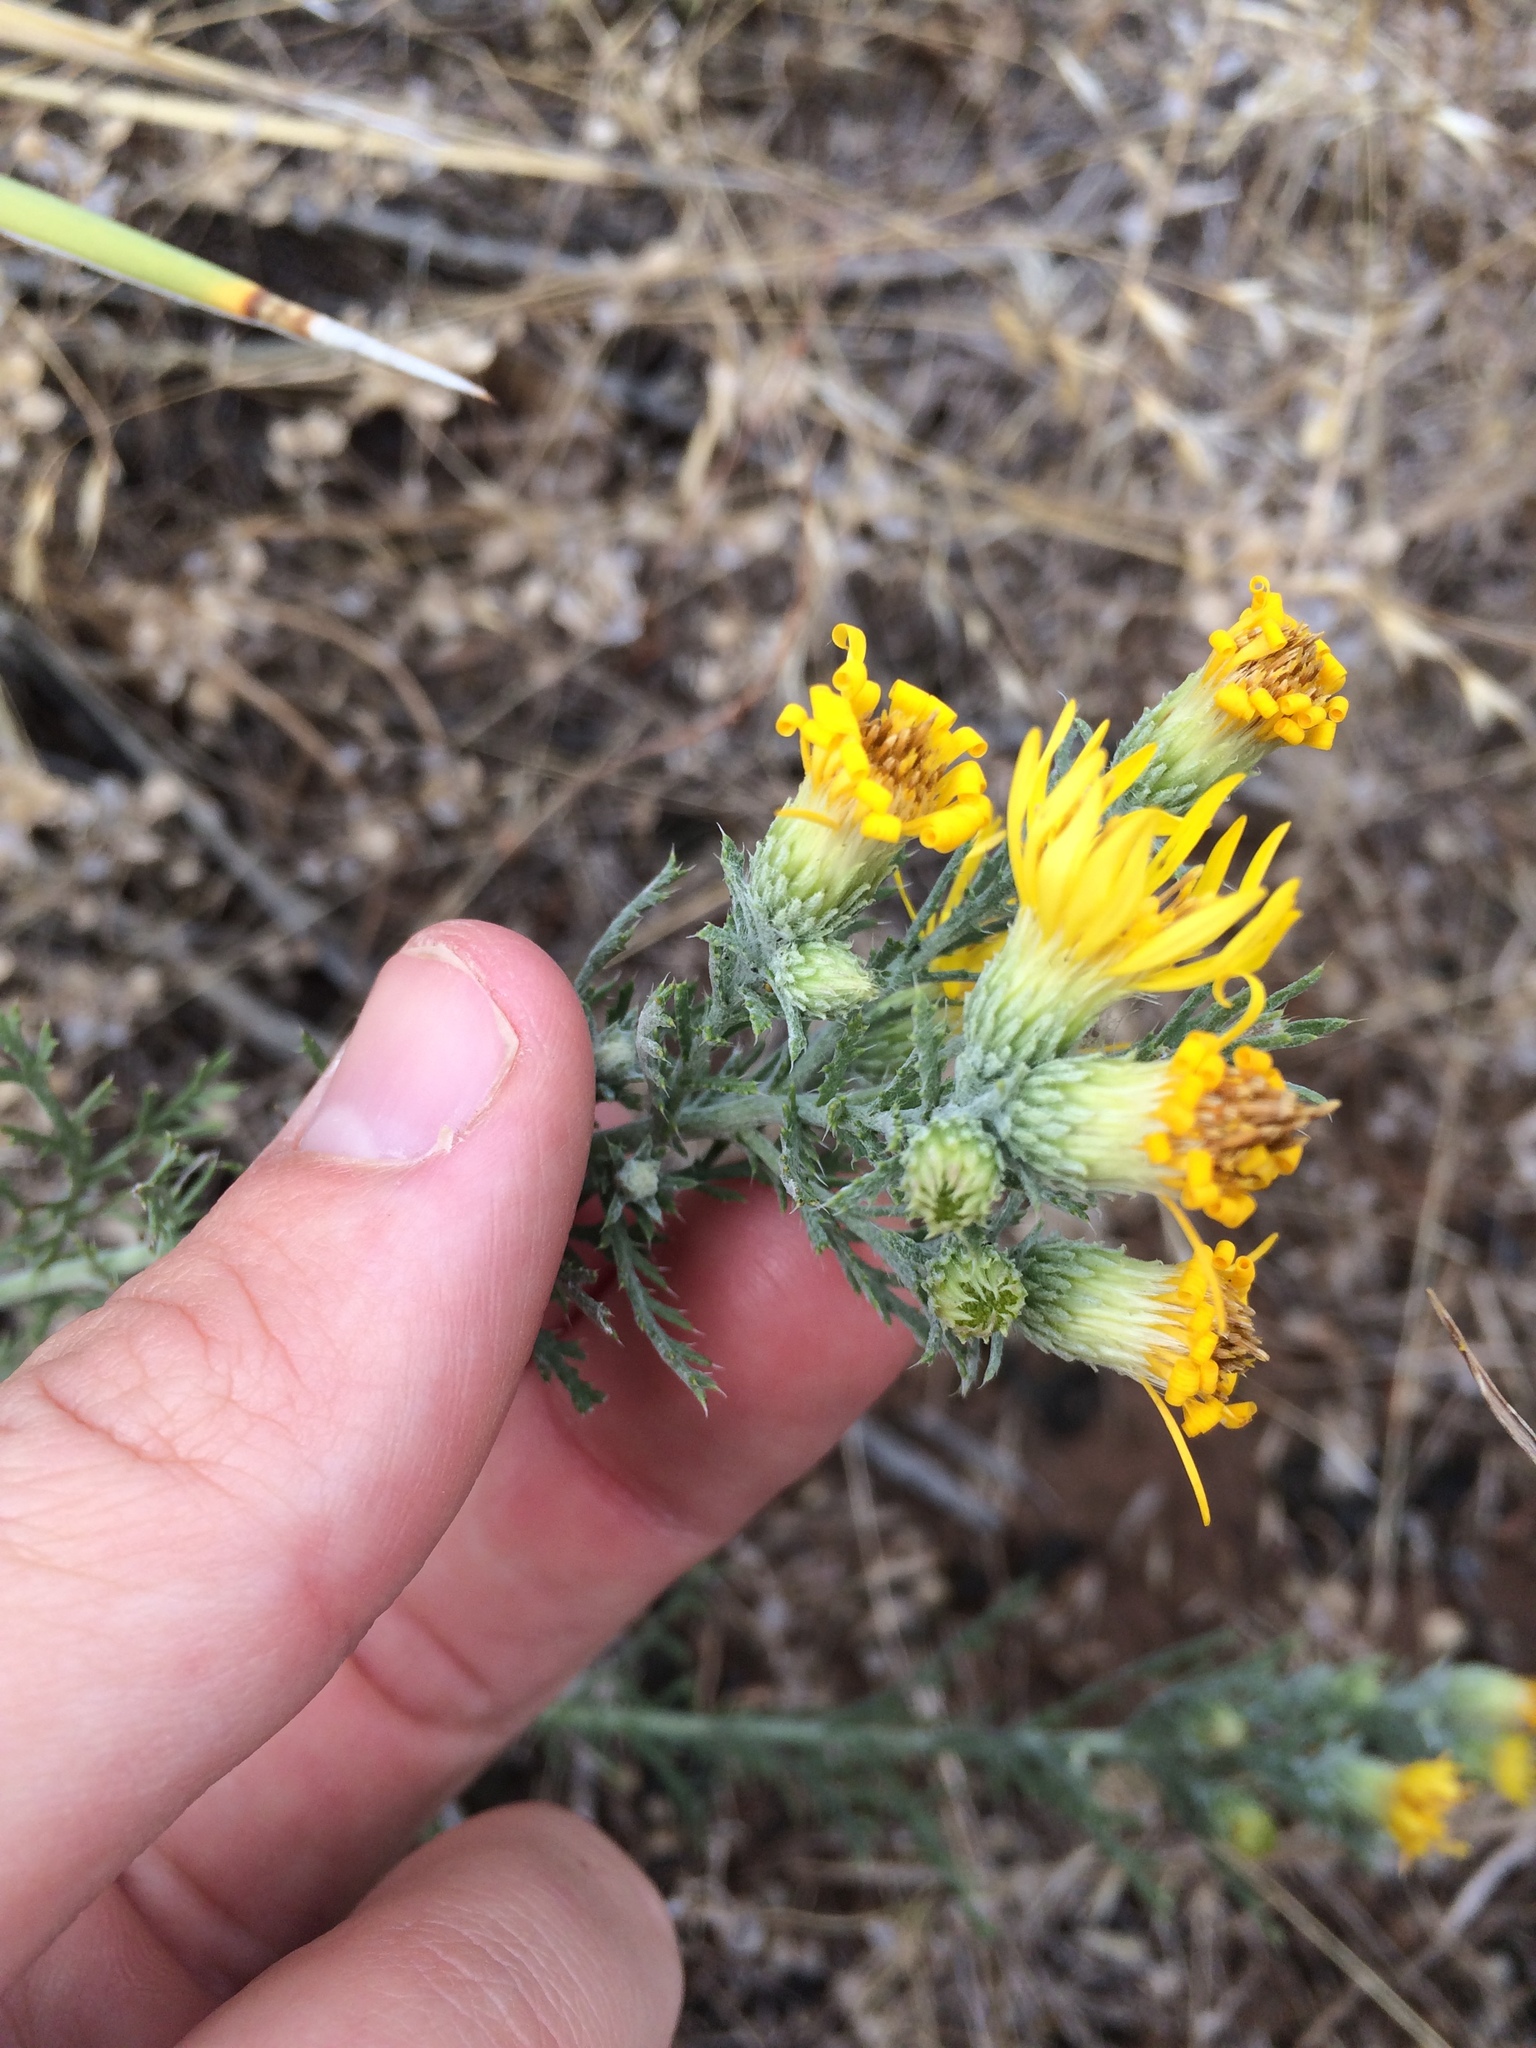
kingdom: Plantae
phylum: Tracheophyta
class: Magnoliopsida
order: Asterales
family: Asteraceae
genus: Xanthisma
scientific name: Xanthisma spinulosum
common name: Spiny goldenweed
